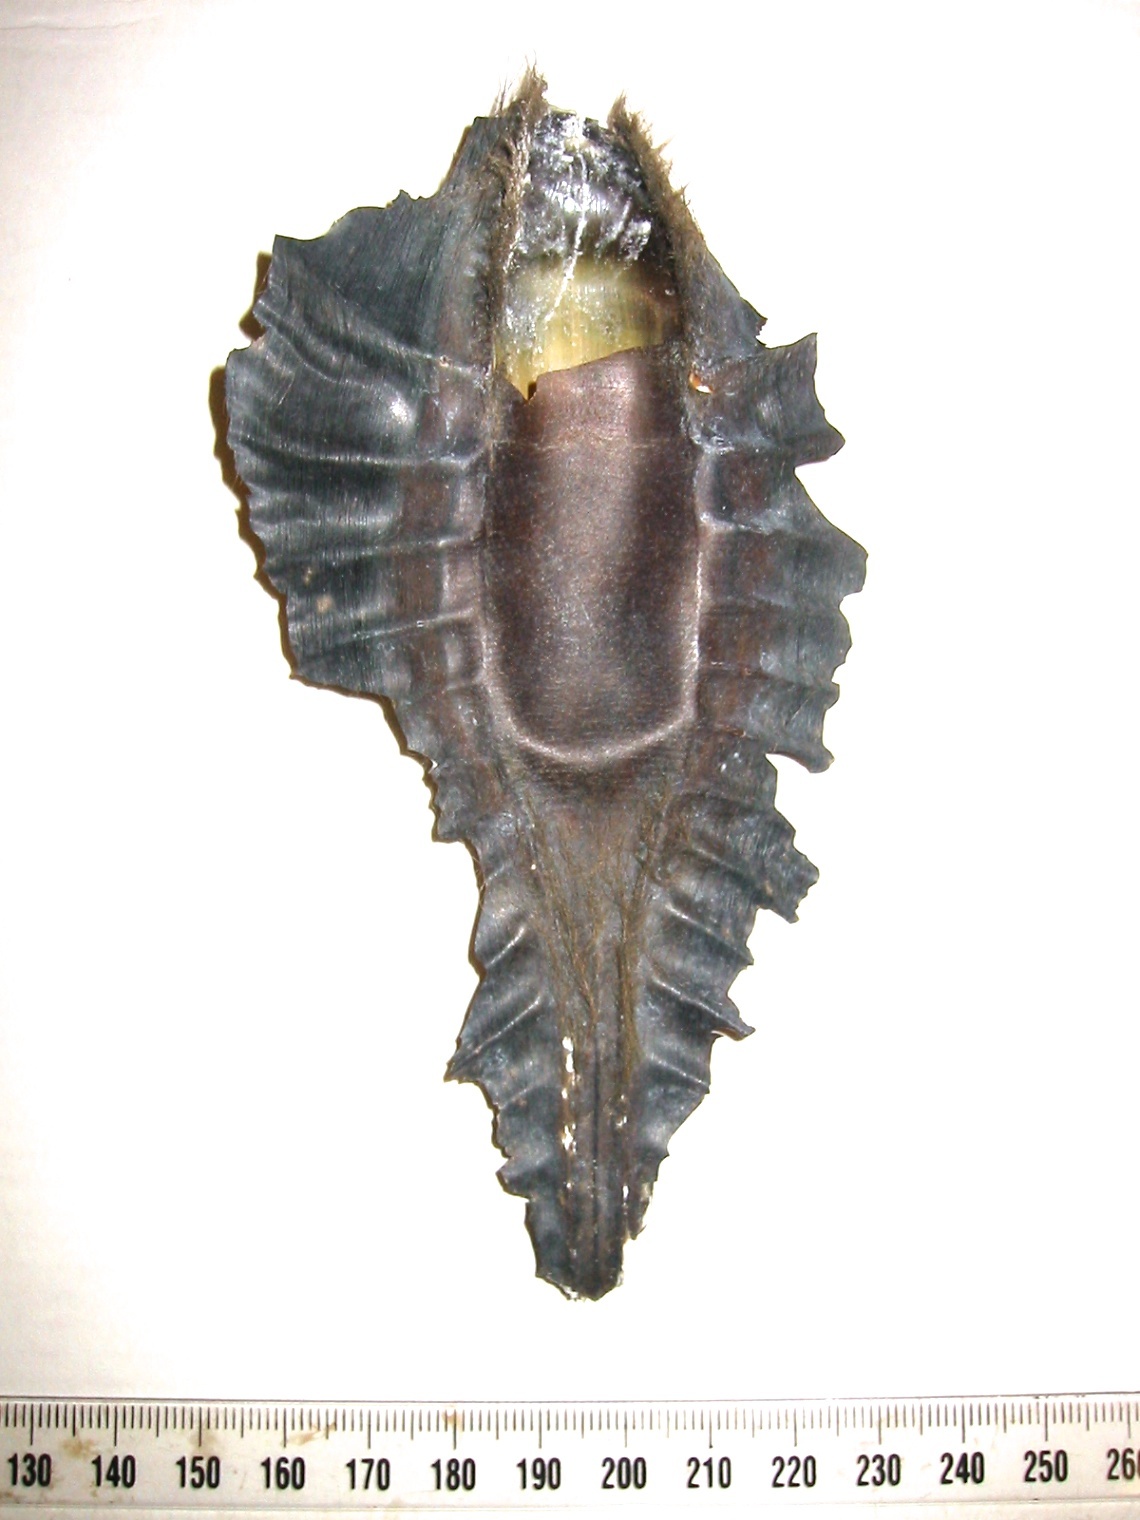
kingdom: Animalia
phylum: Chordata
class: Holocephali
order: Chimaeriformes
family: Callorhinchidae
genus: Callorhinchus
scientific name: Callorhinchus milii
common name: Elephant fish
